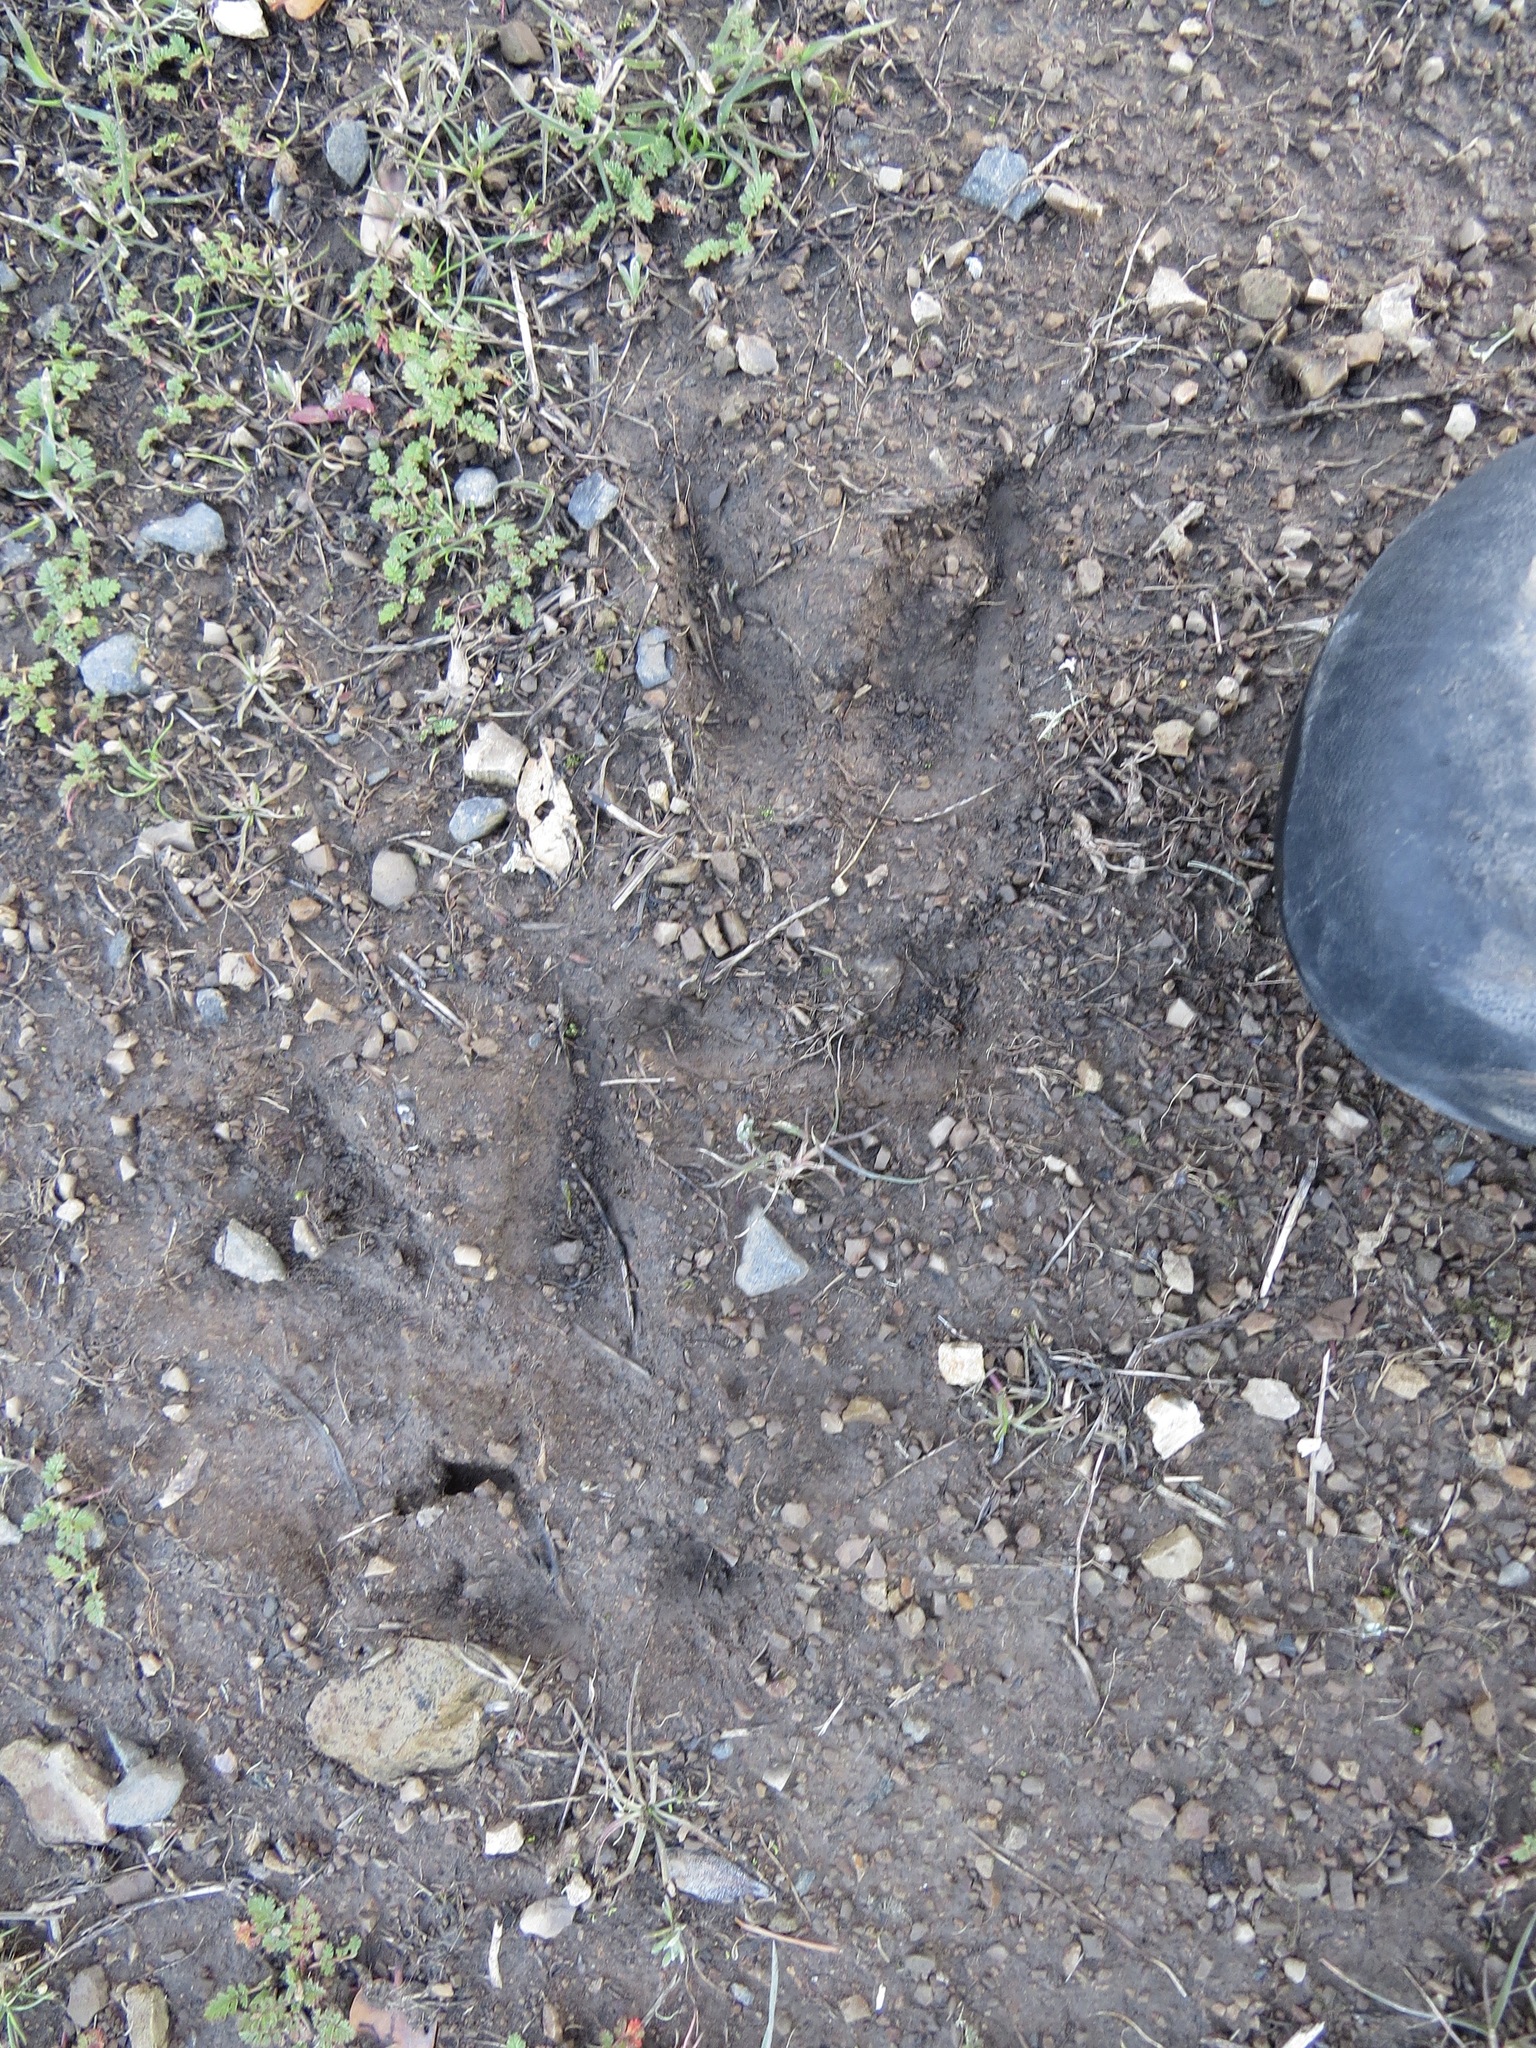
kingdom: Animalia
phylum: Chordata
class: Mammalia
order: Artiodactyla
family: Cervidae
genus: Odocoileus
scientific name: Odocoileus hemionus
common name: Mule deer
